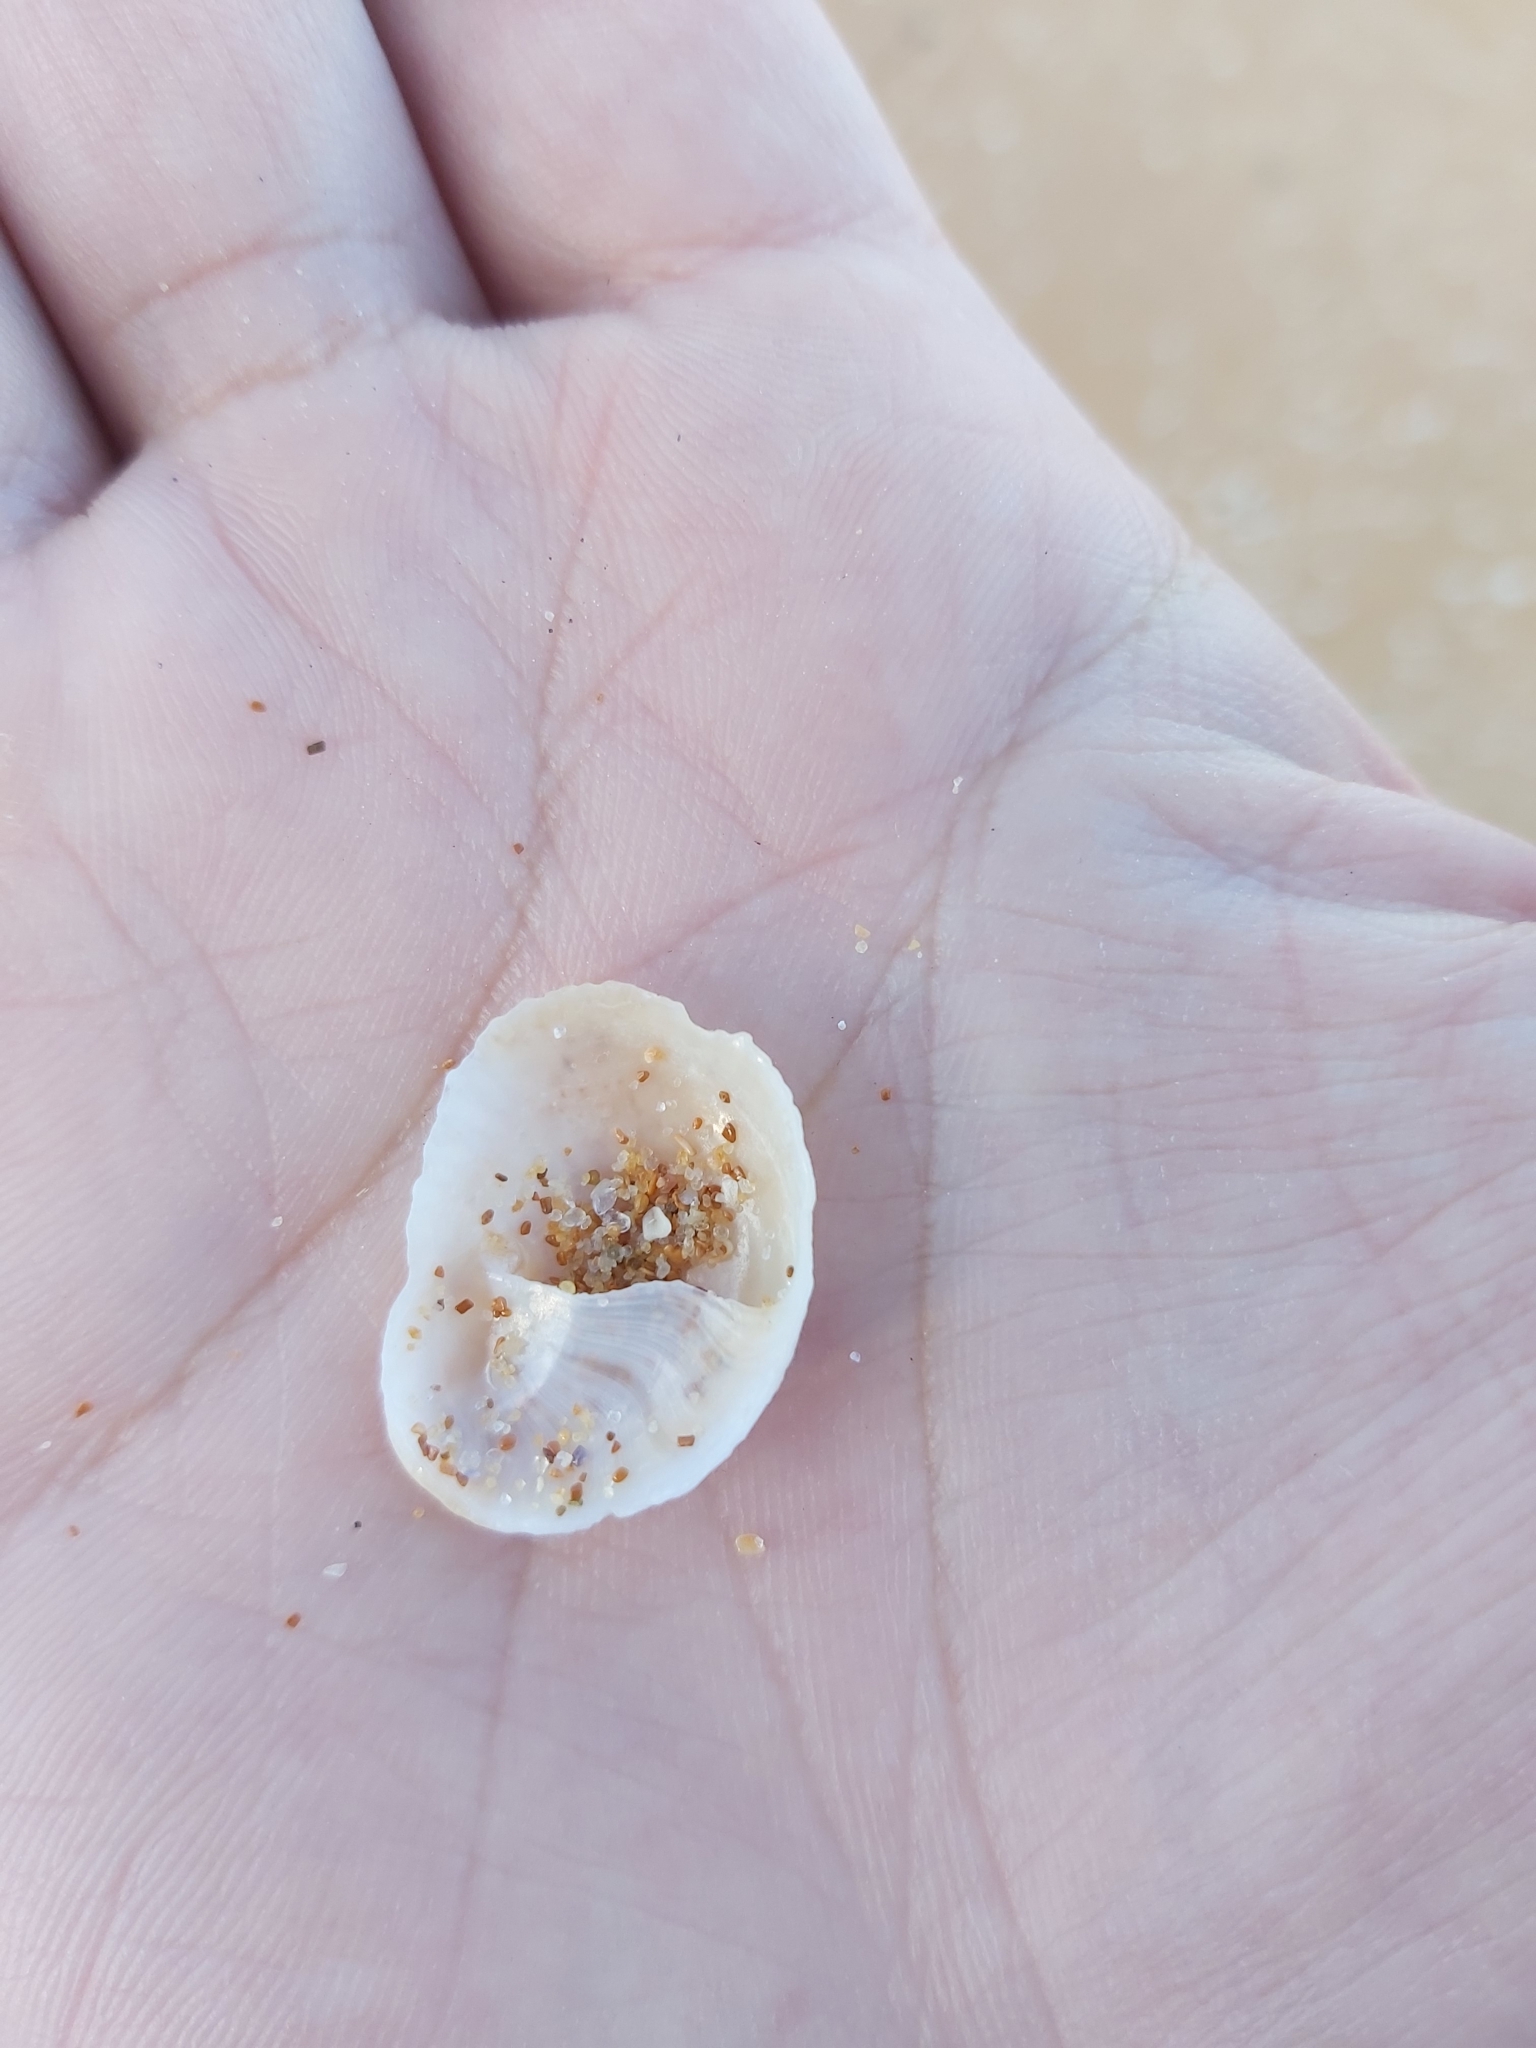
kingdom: Animalia
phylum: Mollusca
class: Gastropoda
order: Littorinimorpha
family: Calyptraeidae
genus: Bostrycapulus
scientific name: Bostrycapulus pritzkeri
